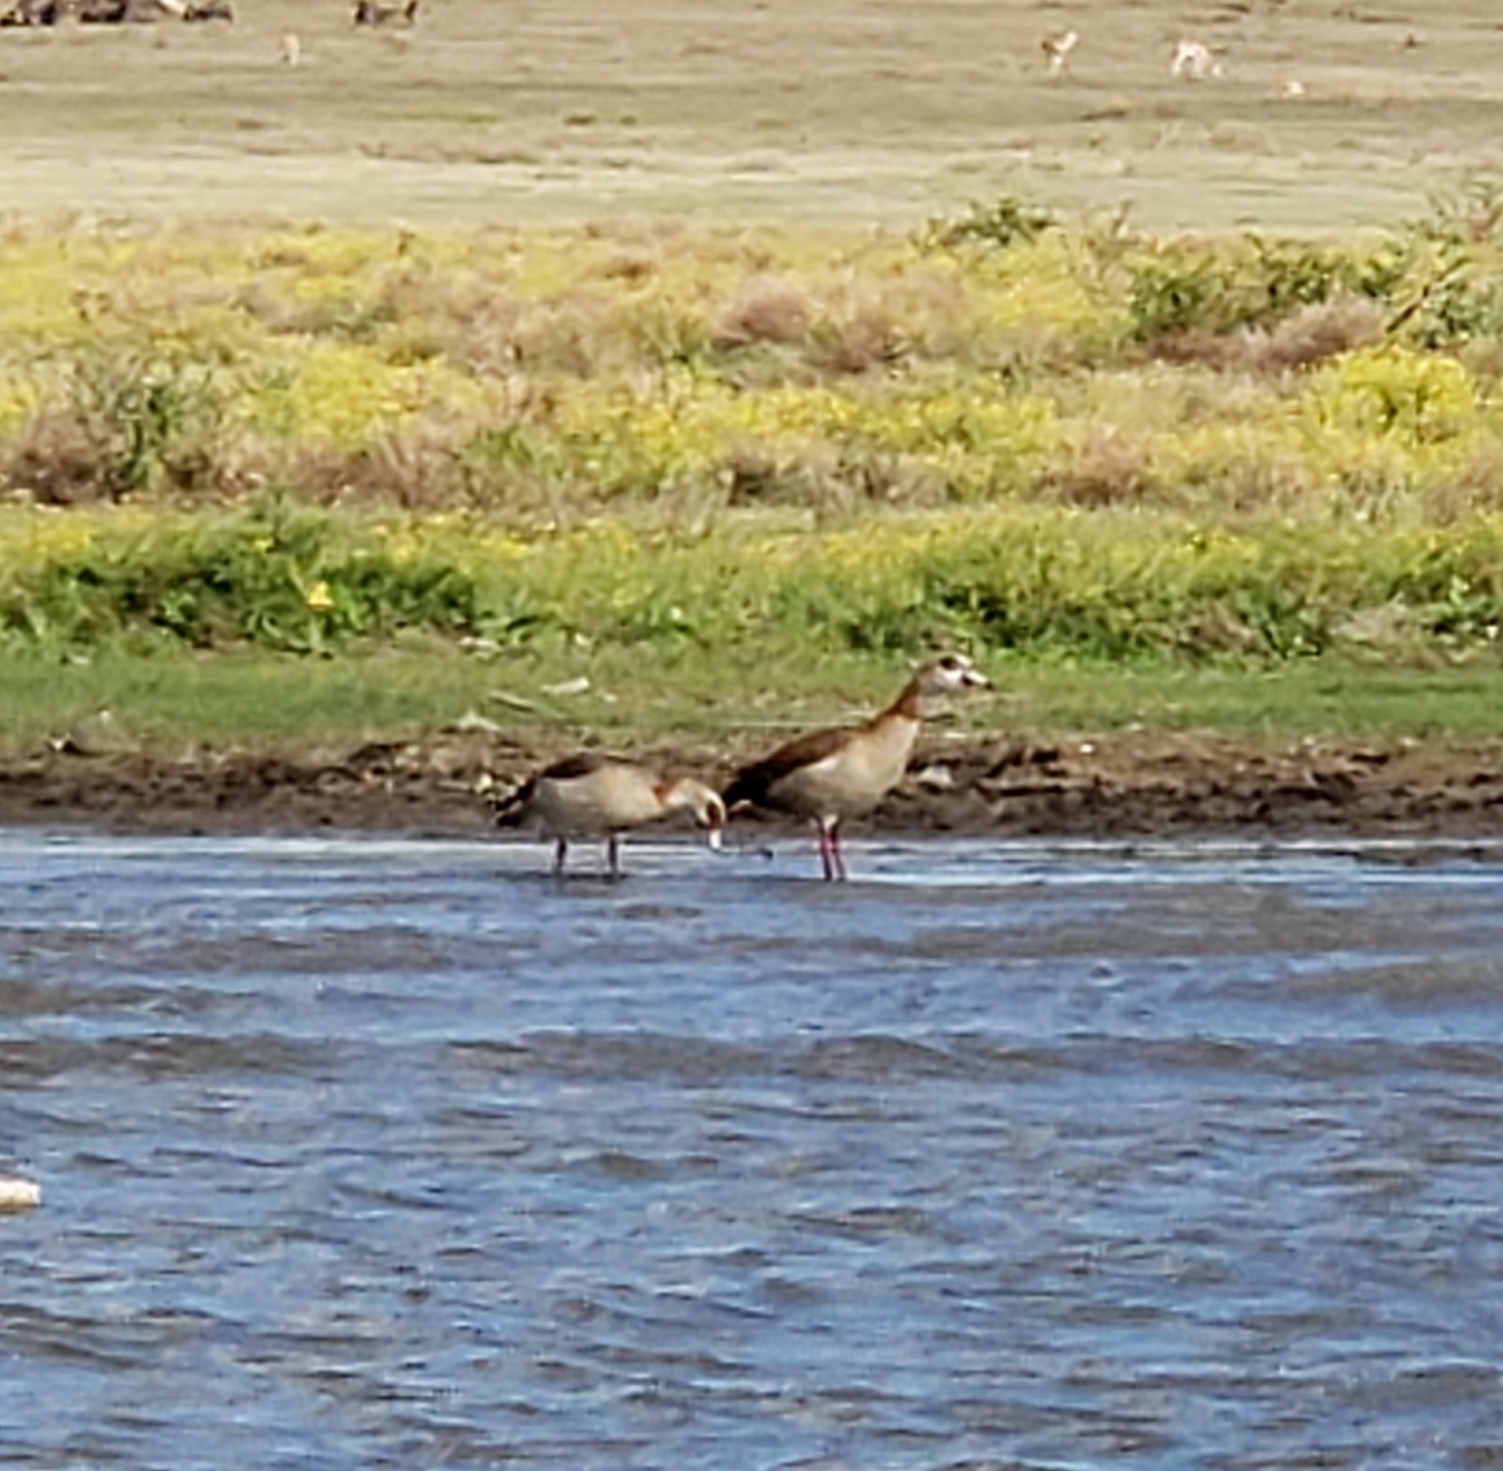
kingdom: Animalia
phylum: Chordata
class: Aves
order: Anseriformes
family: Anatidae
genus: Alopochen
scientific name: Alopochen aegyptiaca
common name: Egyptian goose
